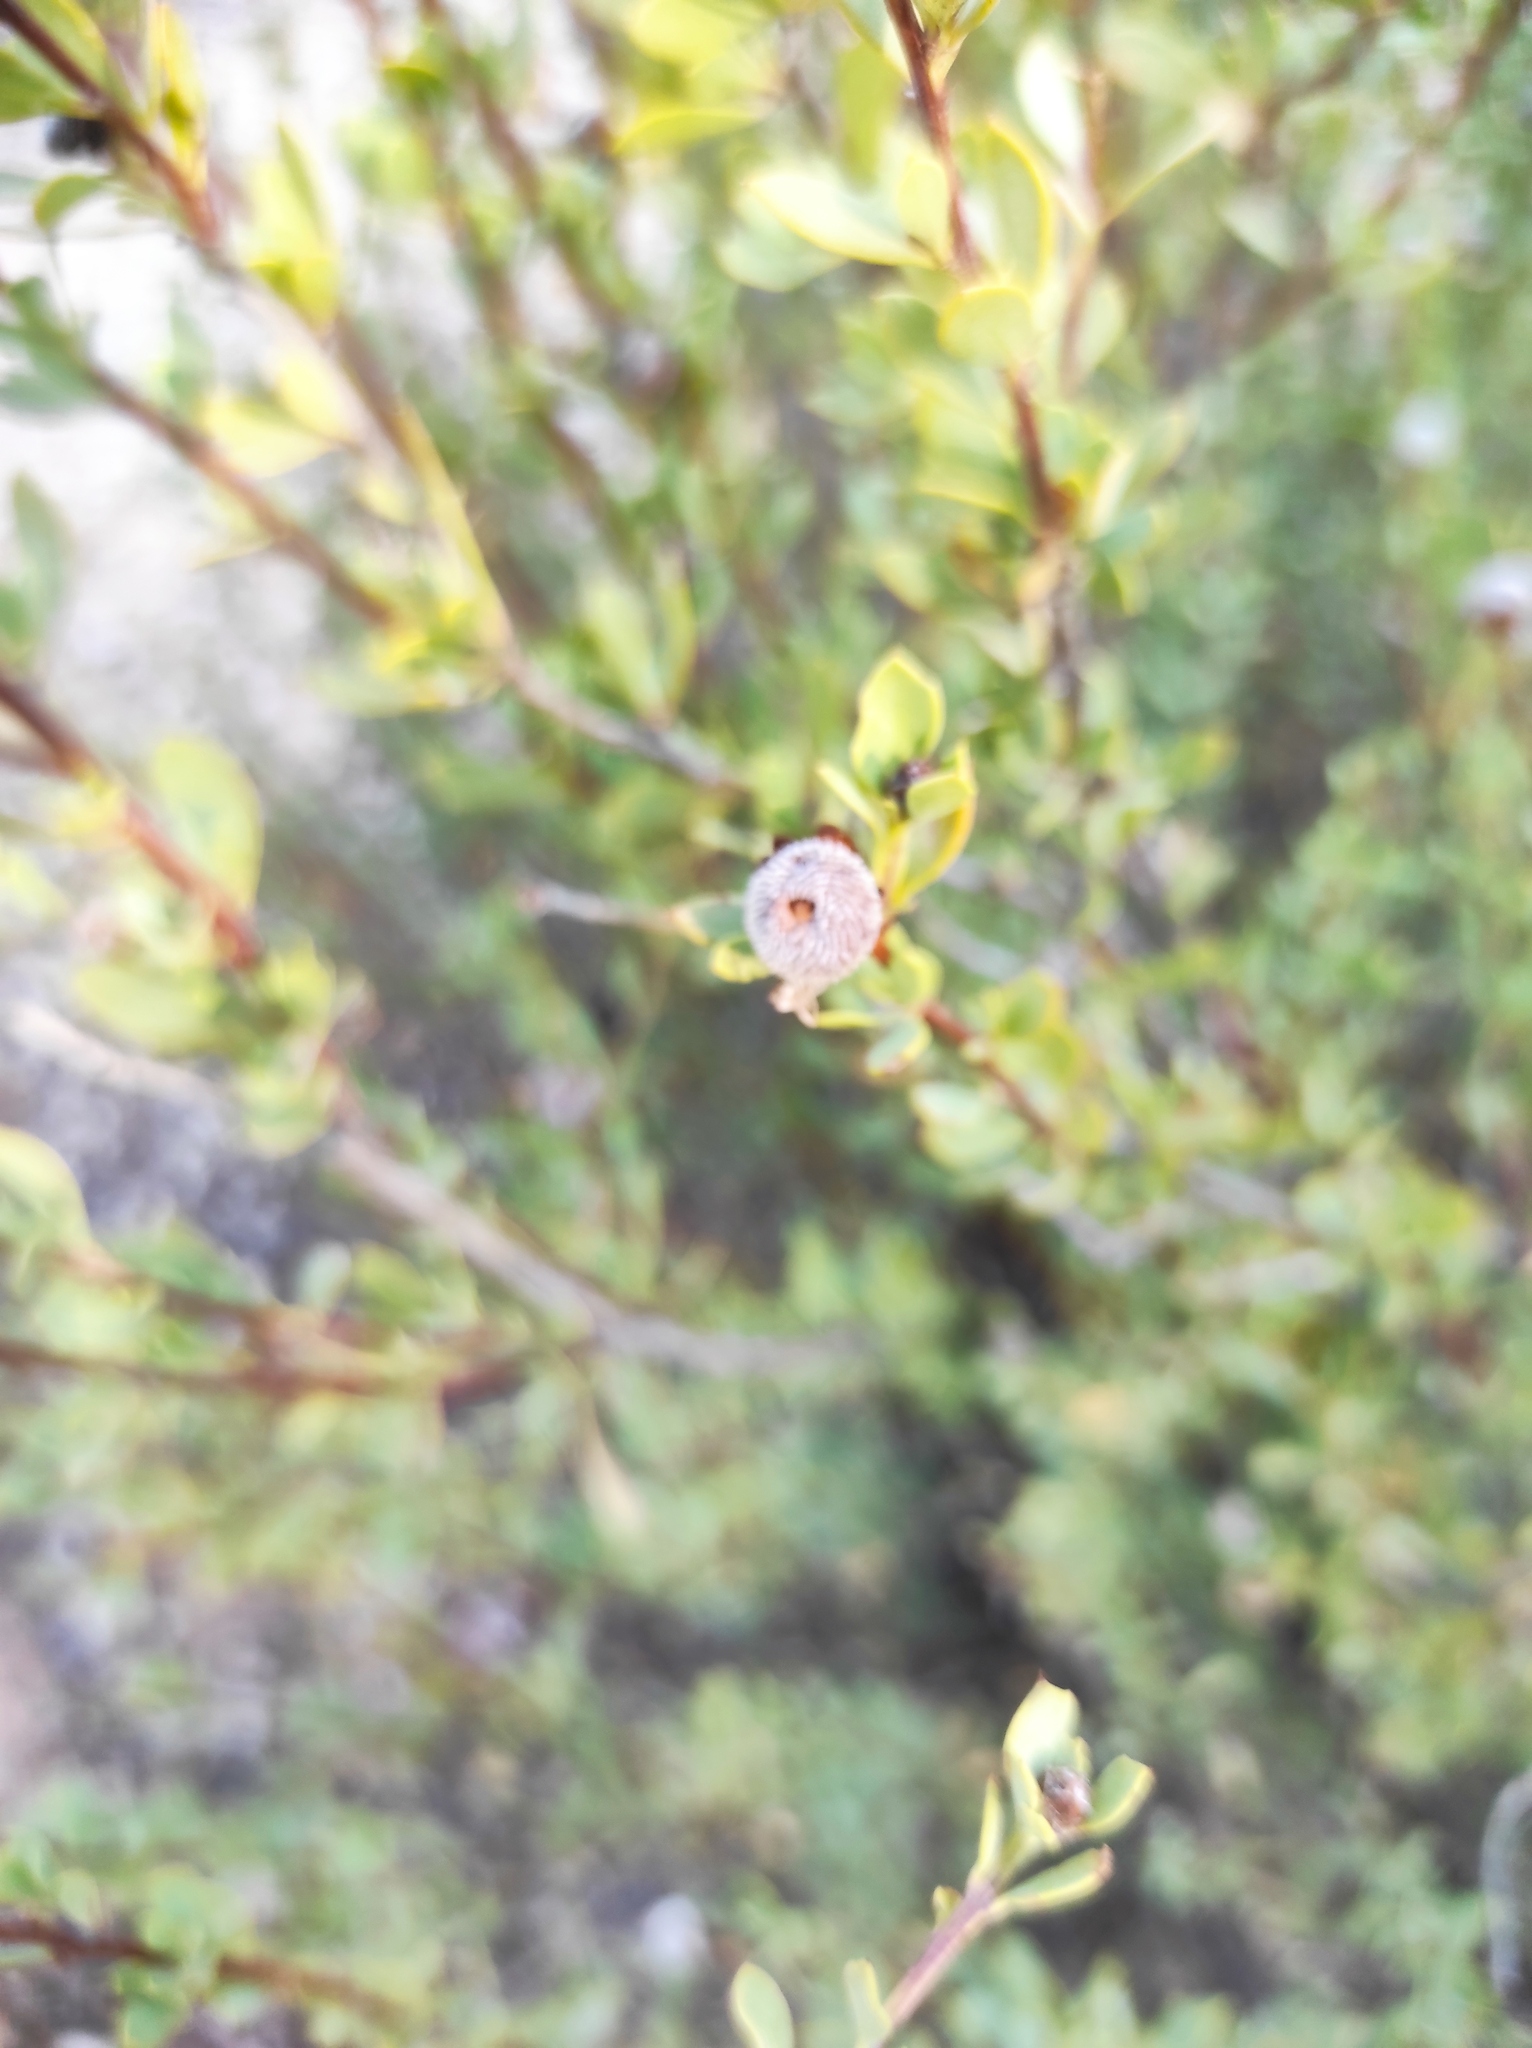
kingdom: Plantae
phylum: Tracheophyta
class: Magnoliopsida
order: Lamiales
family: Plantaginaceae
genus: Globularia
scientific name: Globularia alypum
